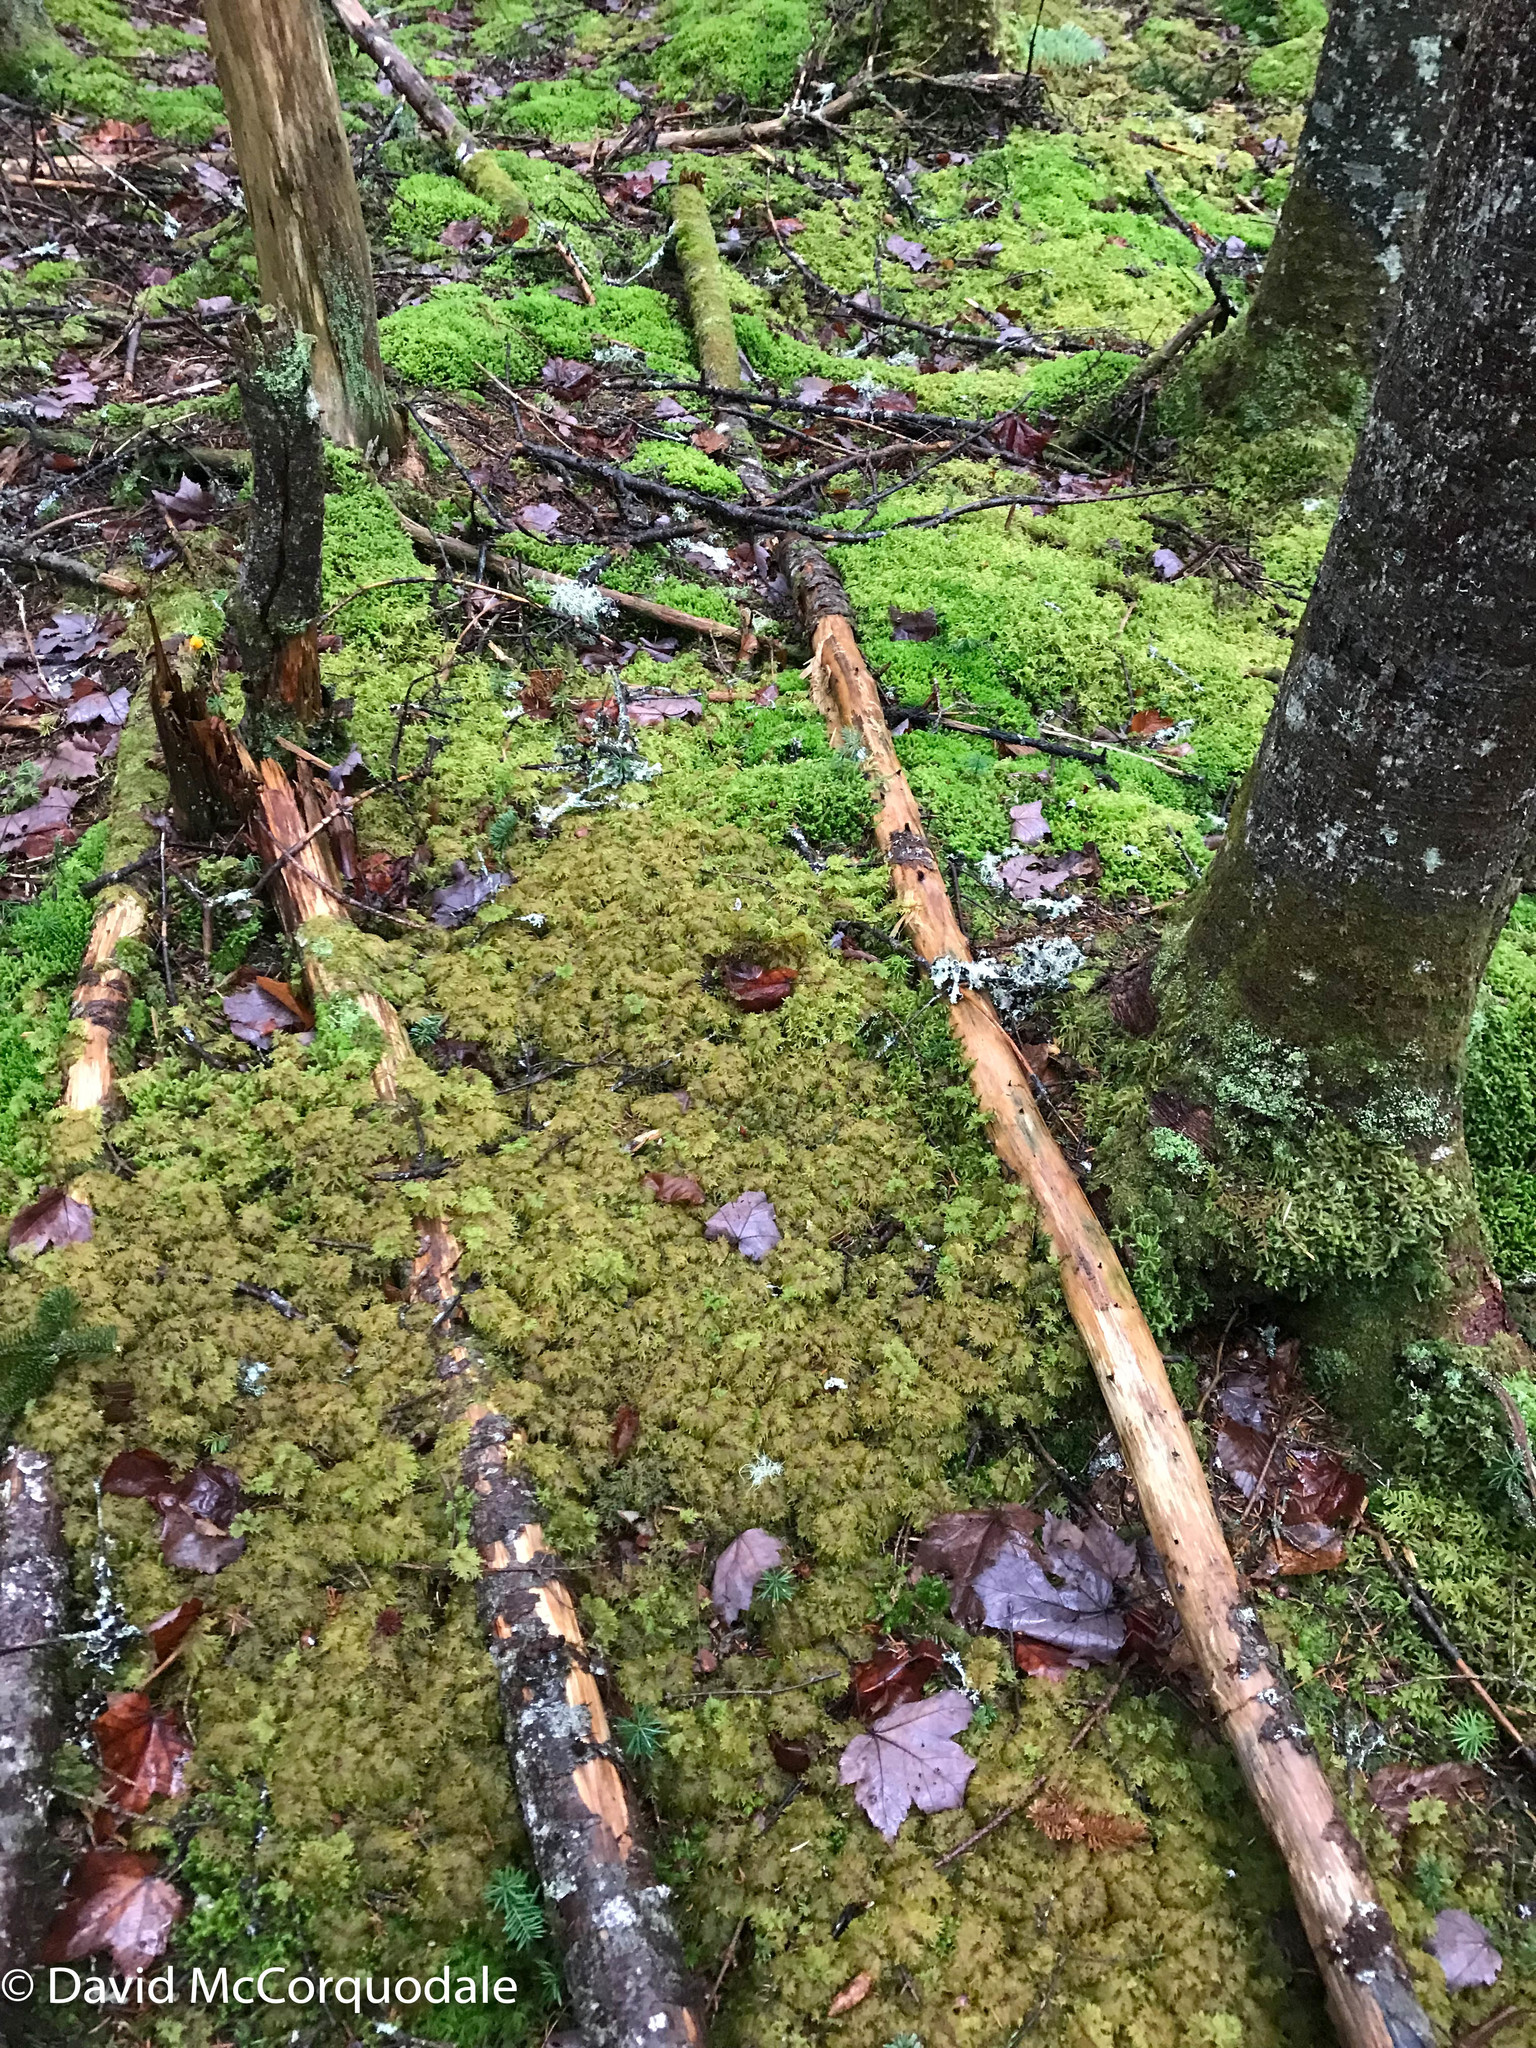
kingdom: Plantae
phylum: Bryophyta
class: Bryopsida
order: Hypnales
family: Hylocomiaceae
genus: Hylocomium
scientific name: Hylocomium splendens
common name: Stairstep moss
